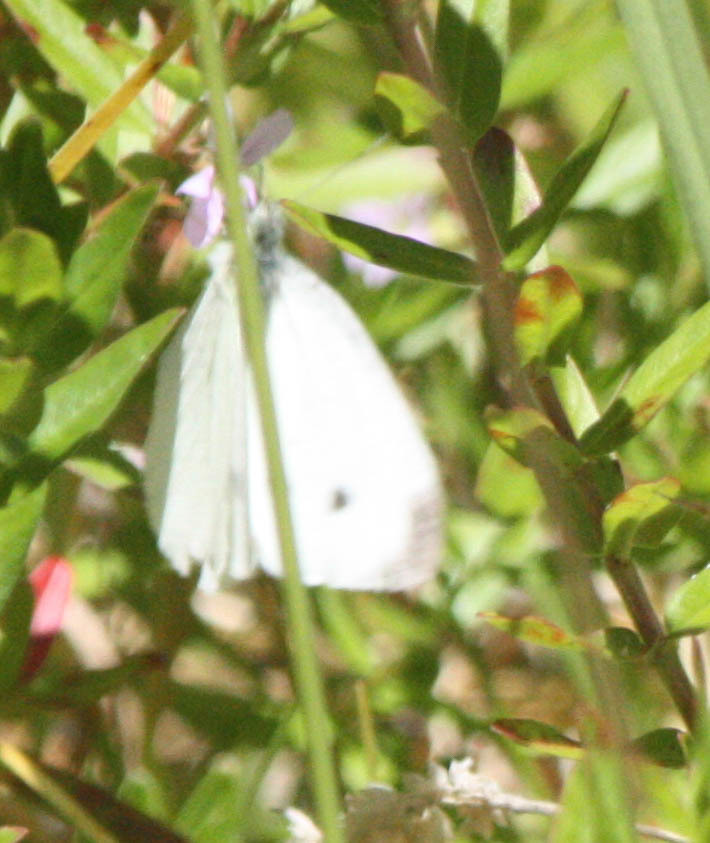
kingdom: Animalia
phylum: Arthropoda
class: Insecta
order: Lepidoptera
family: Pieridae
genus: Pieris
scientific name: Pieris rapae
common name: Small white
